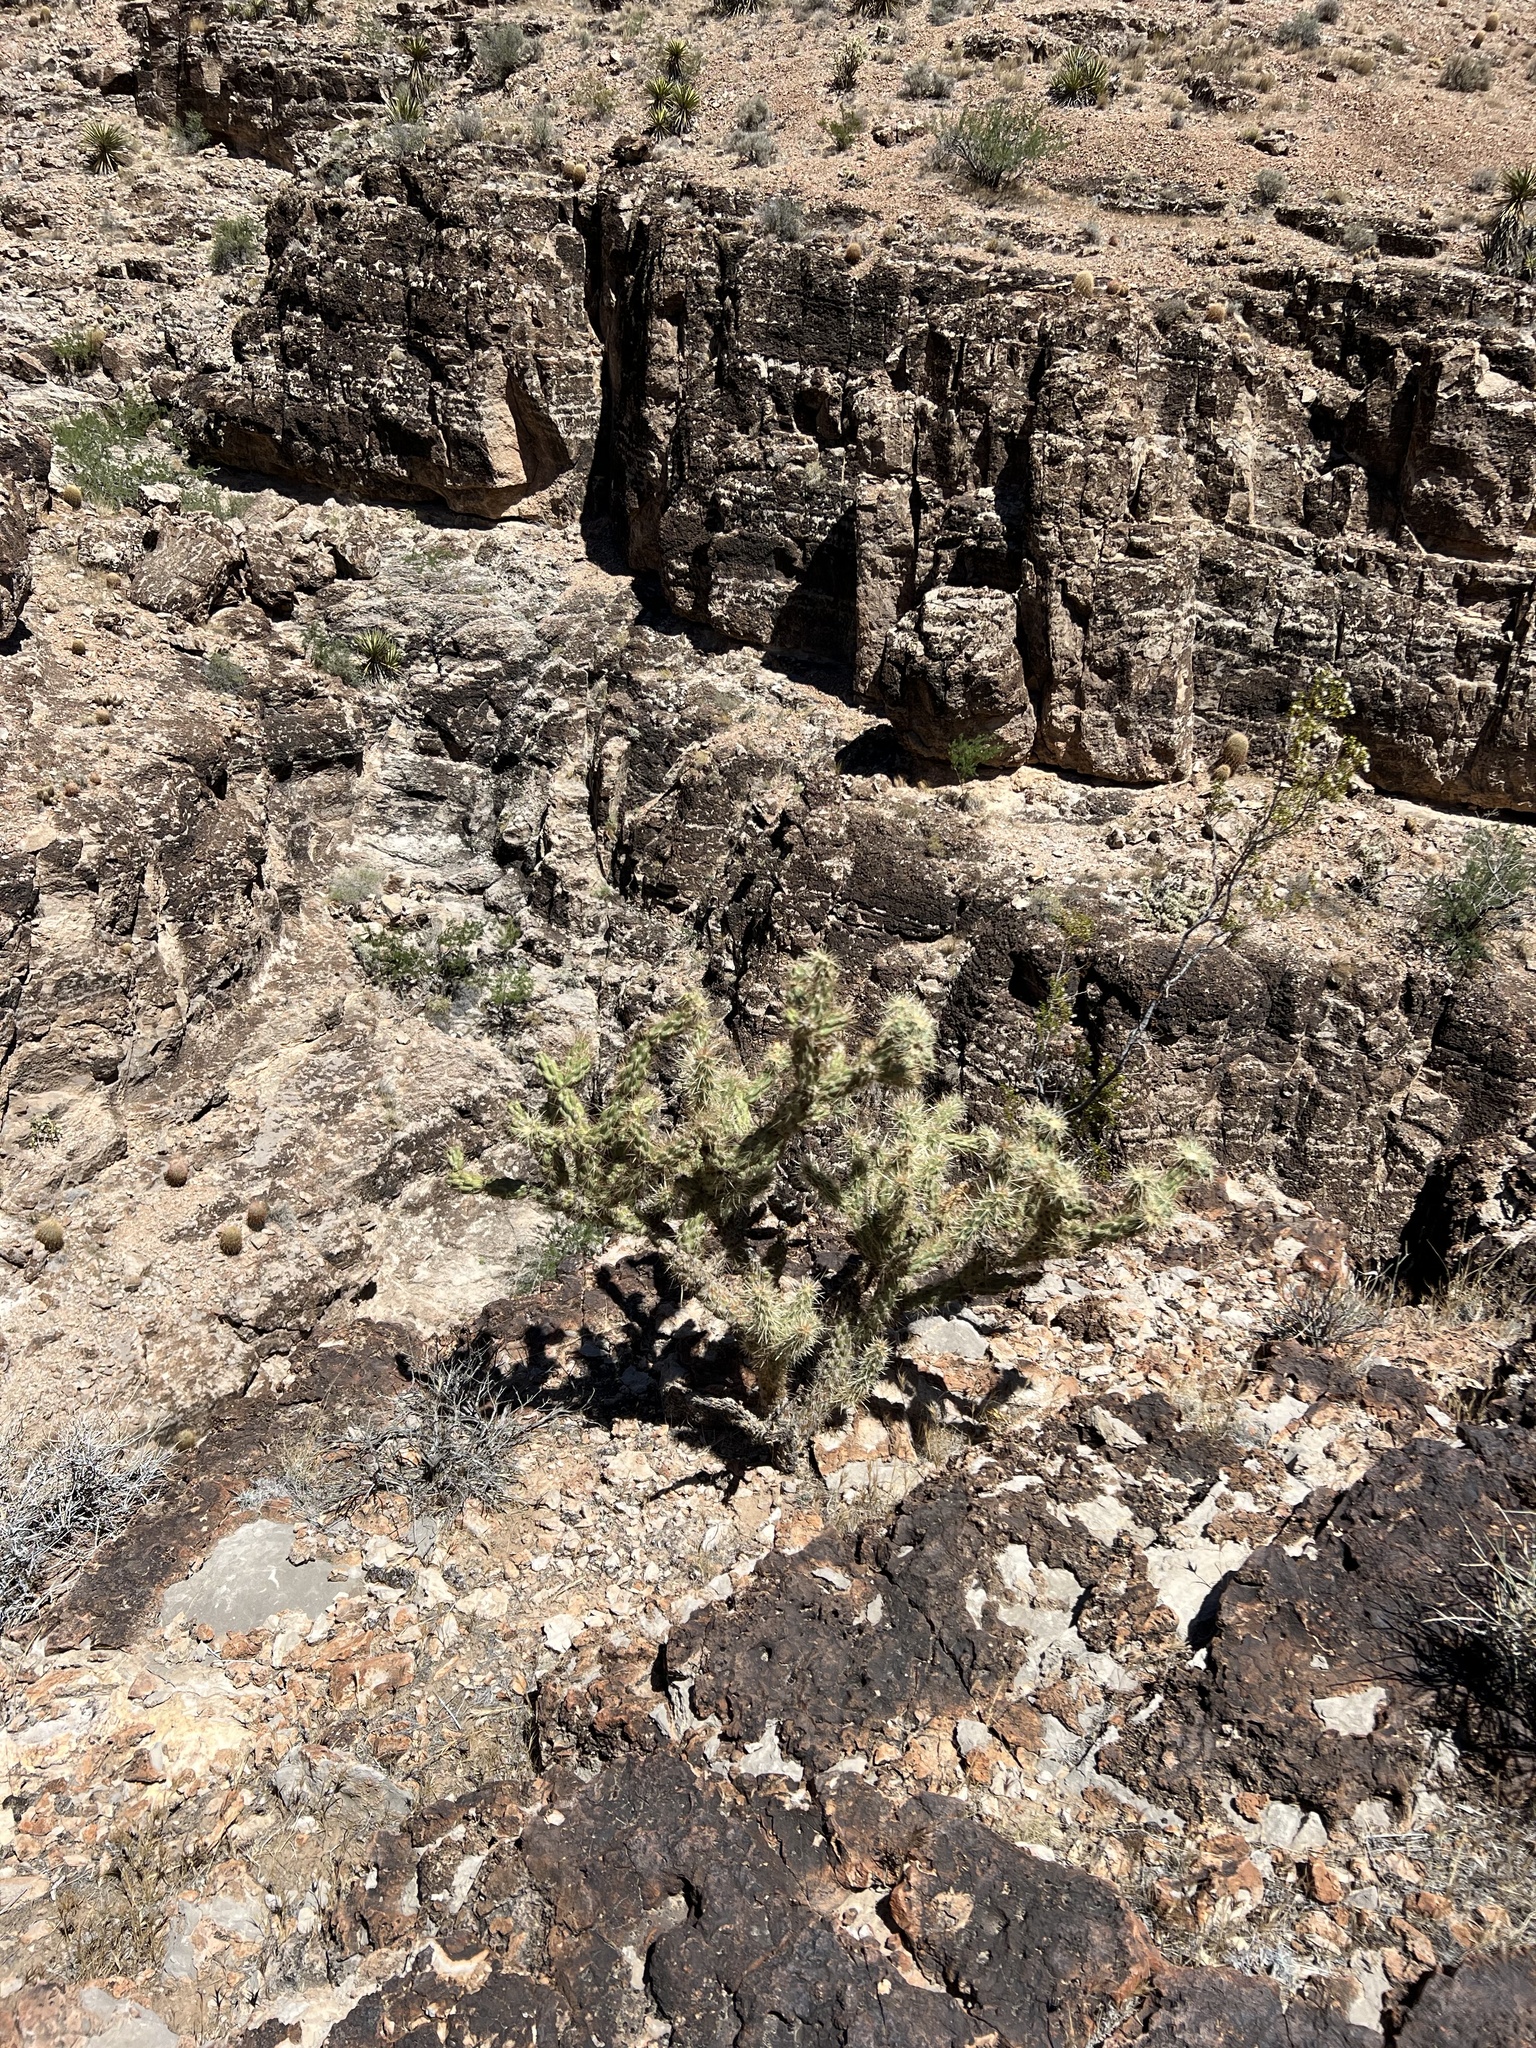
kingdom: Plantae
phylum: Tracheophyta
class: Magnoliopsida
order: Caryophyllales
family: Cactaceae
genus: Cylindropuntia
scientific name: Cylindropuntia echinocarpa
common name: Ground cholla
